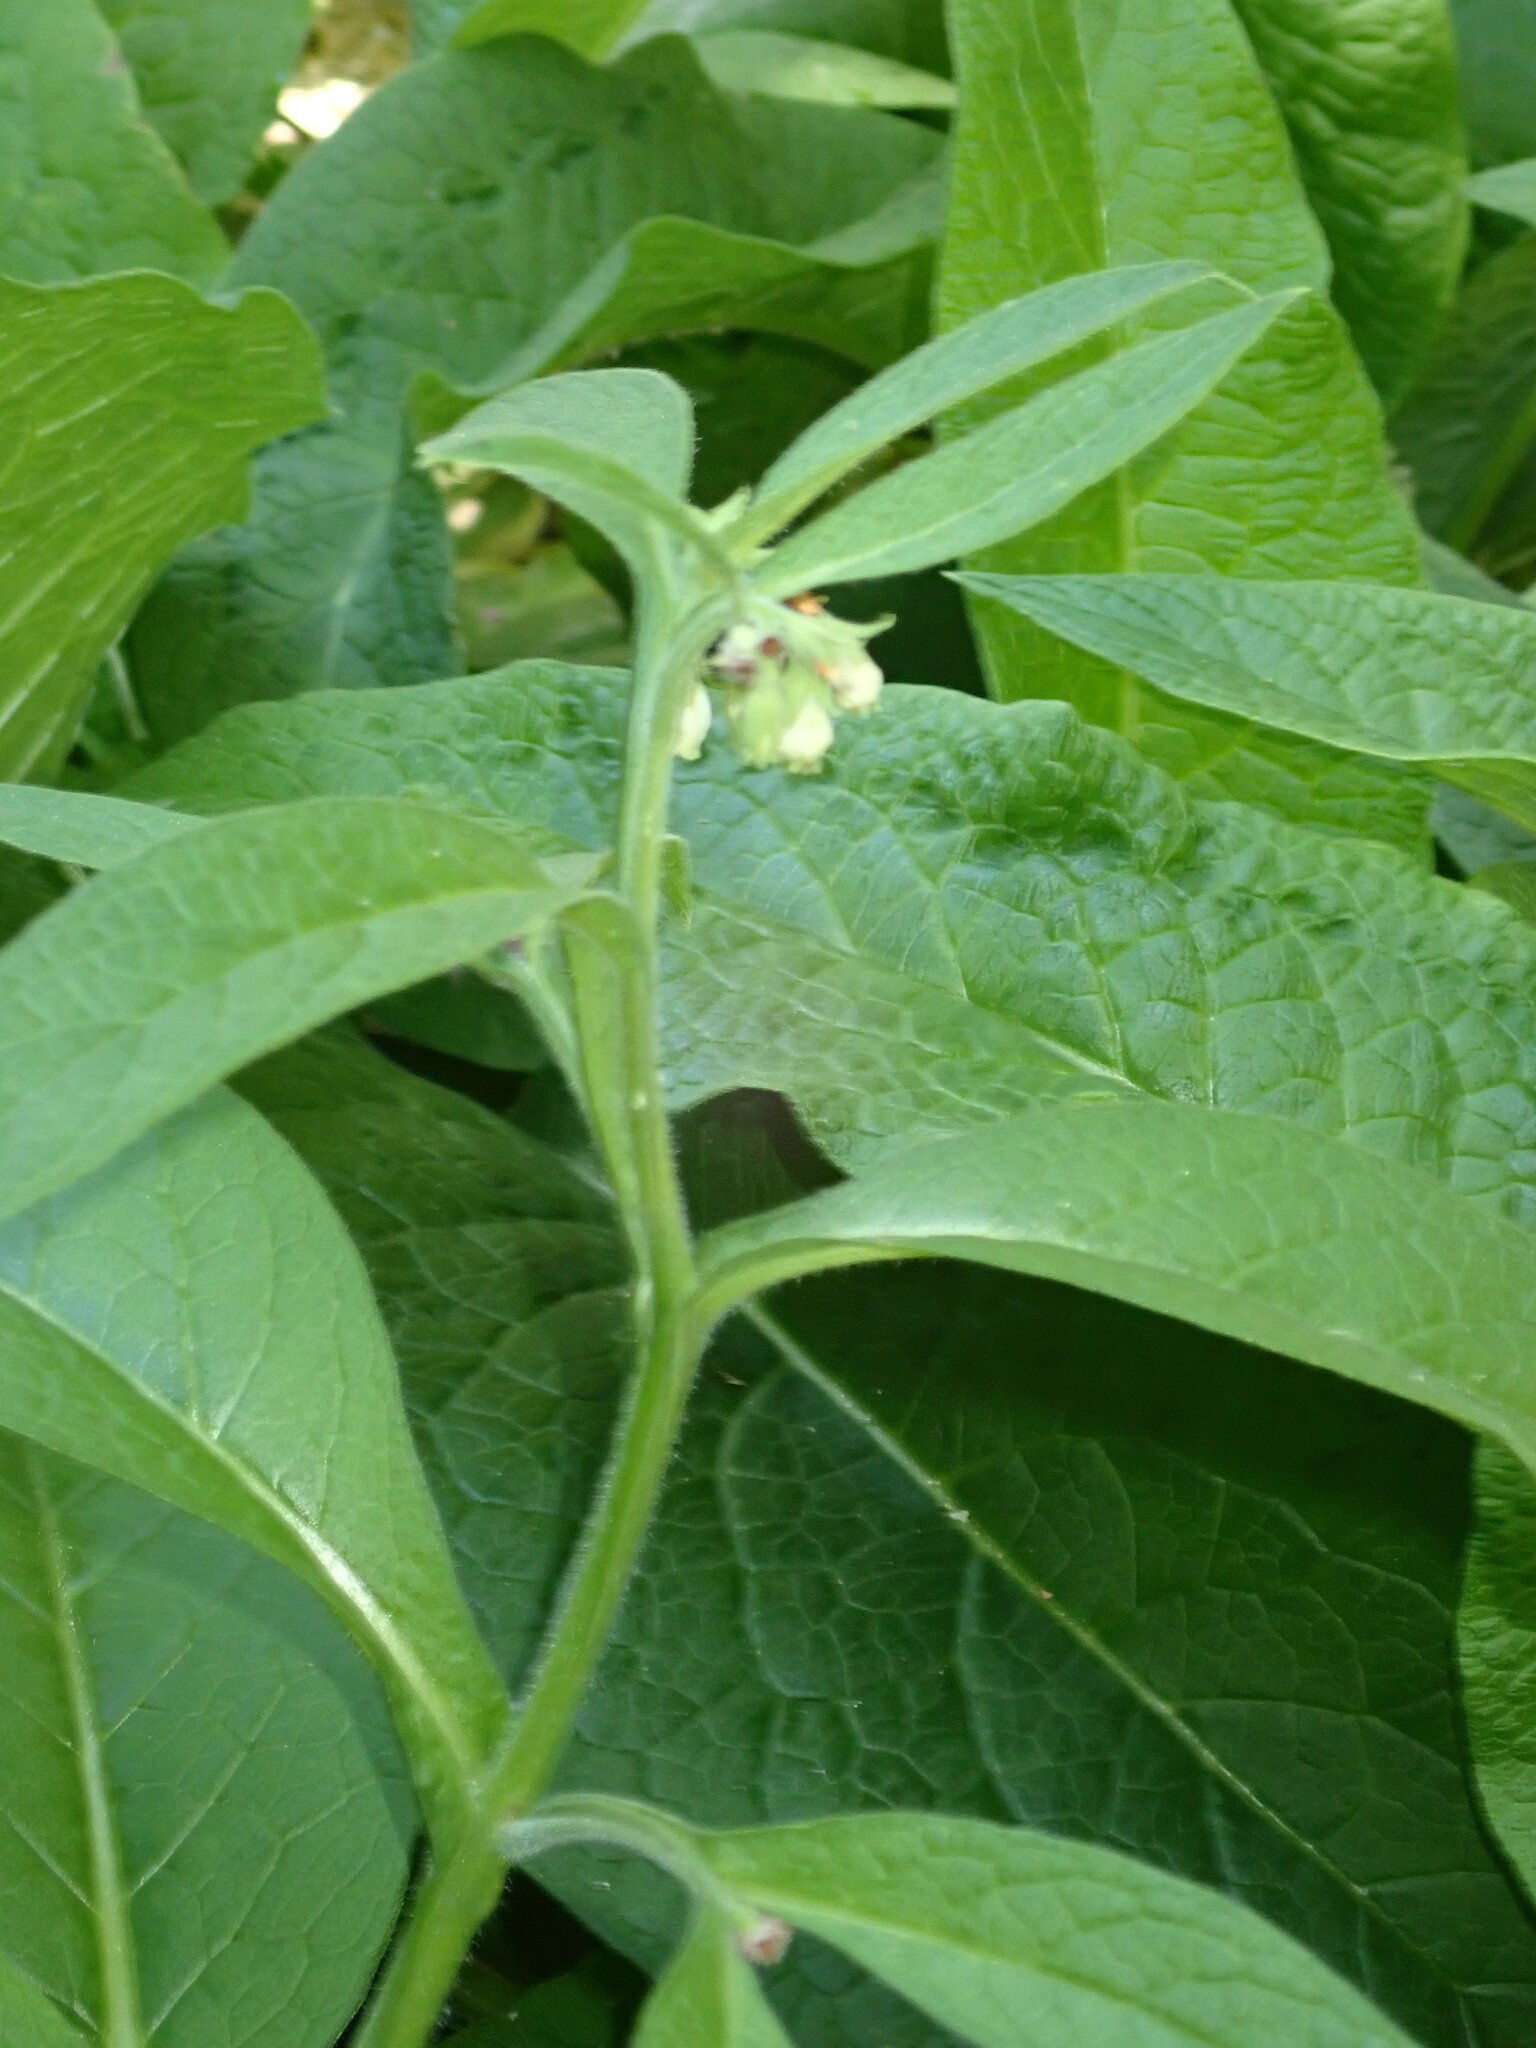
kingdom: Plantae
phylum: Tracheophyta
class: Magnoliopsida
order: Boraginales
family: Boraginaceae
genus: Symphytum
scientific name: Symphytum tuberosum
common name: Tuberous comfrey
